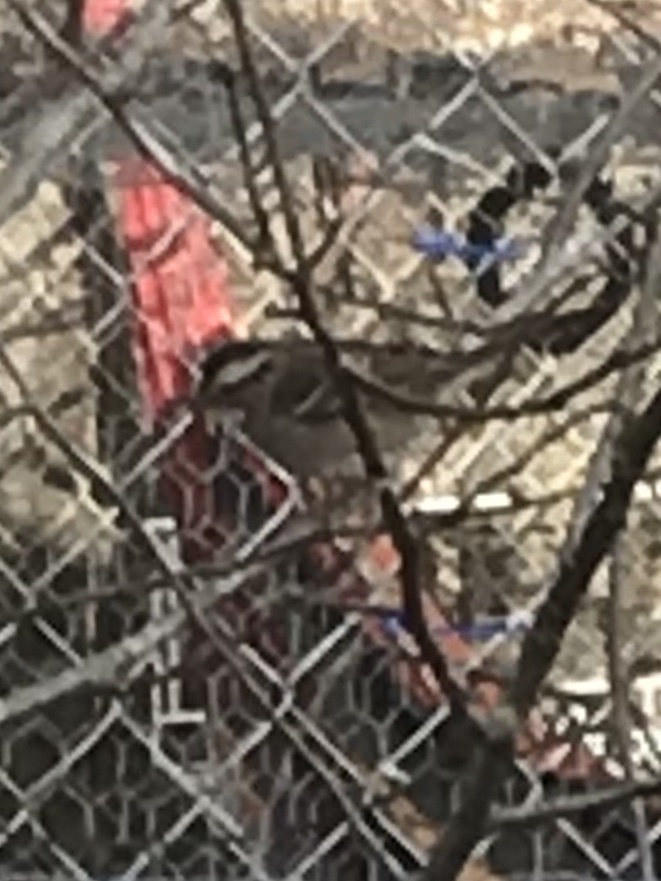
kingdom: Animalia
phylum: Chordata
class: Aves
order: Passeriformes
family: Passerellidae
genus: Zonotrichia
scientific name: Zonotrichia albicollis
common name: White-throated sparrow
